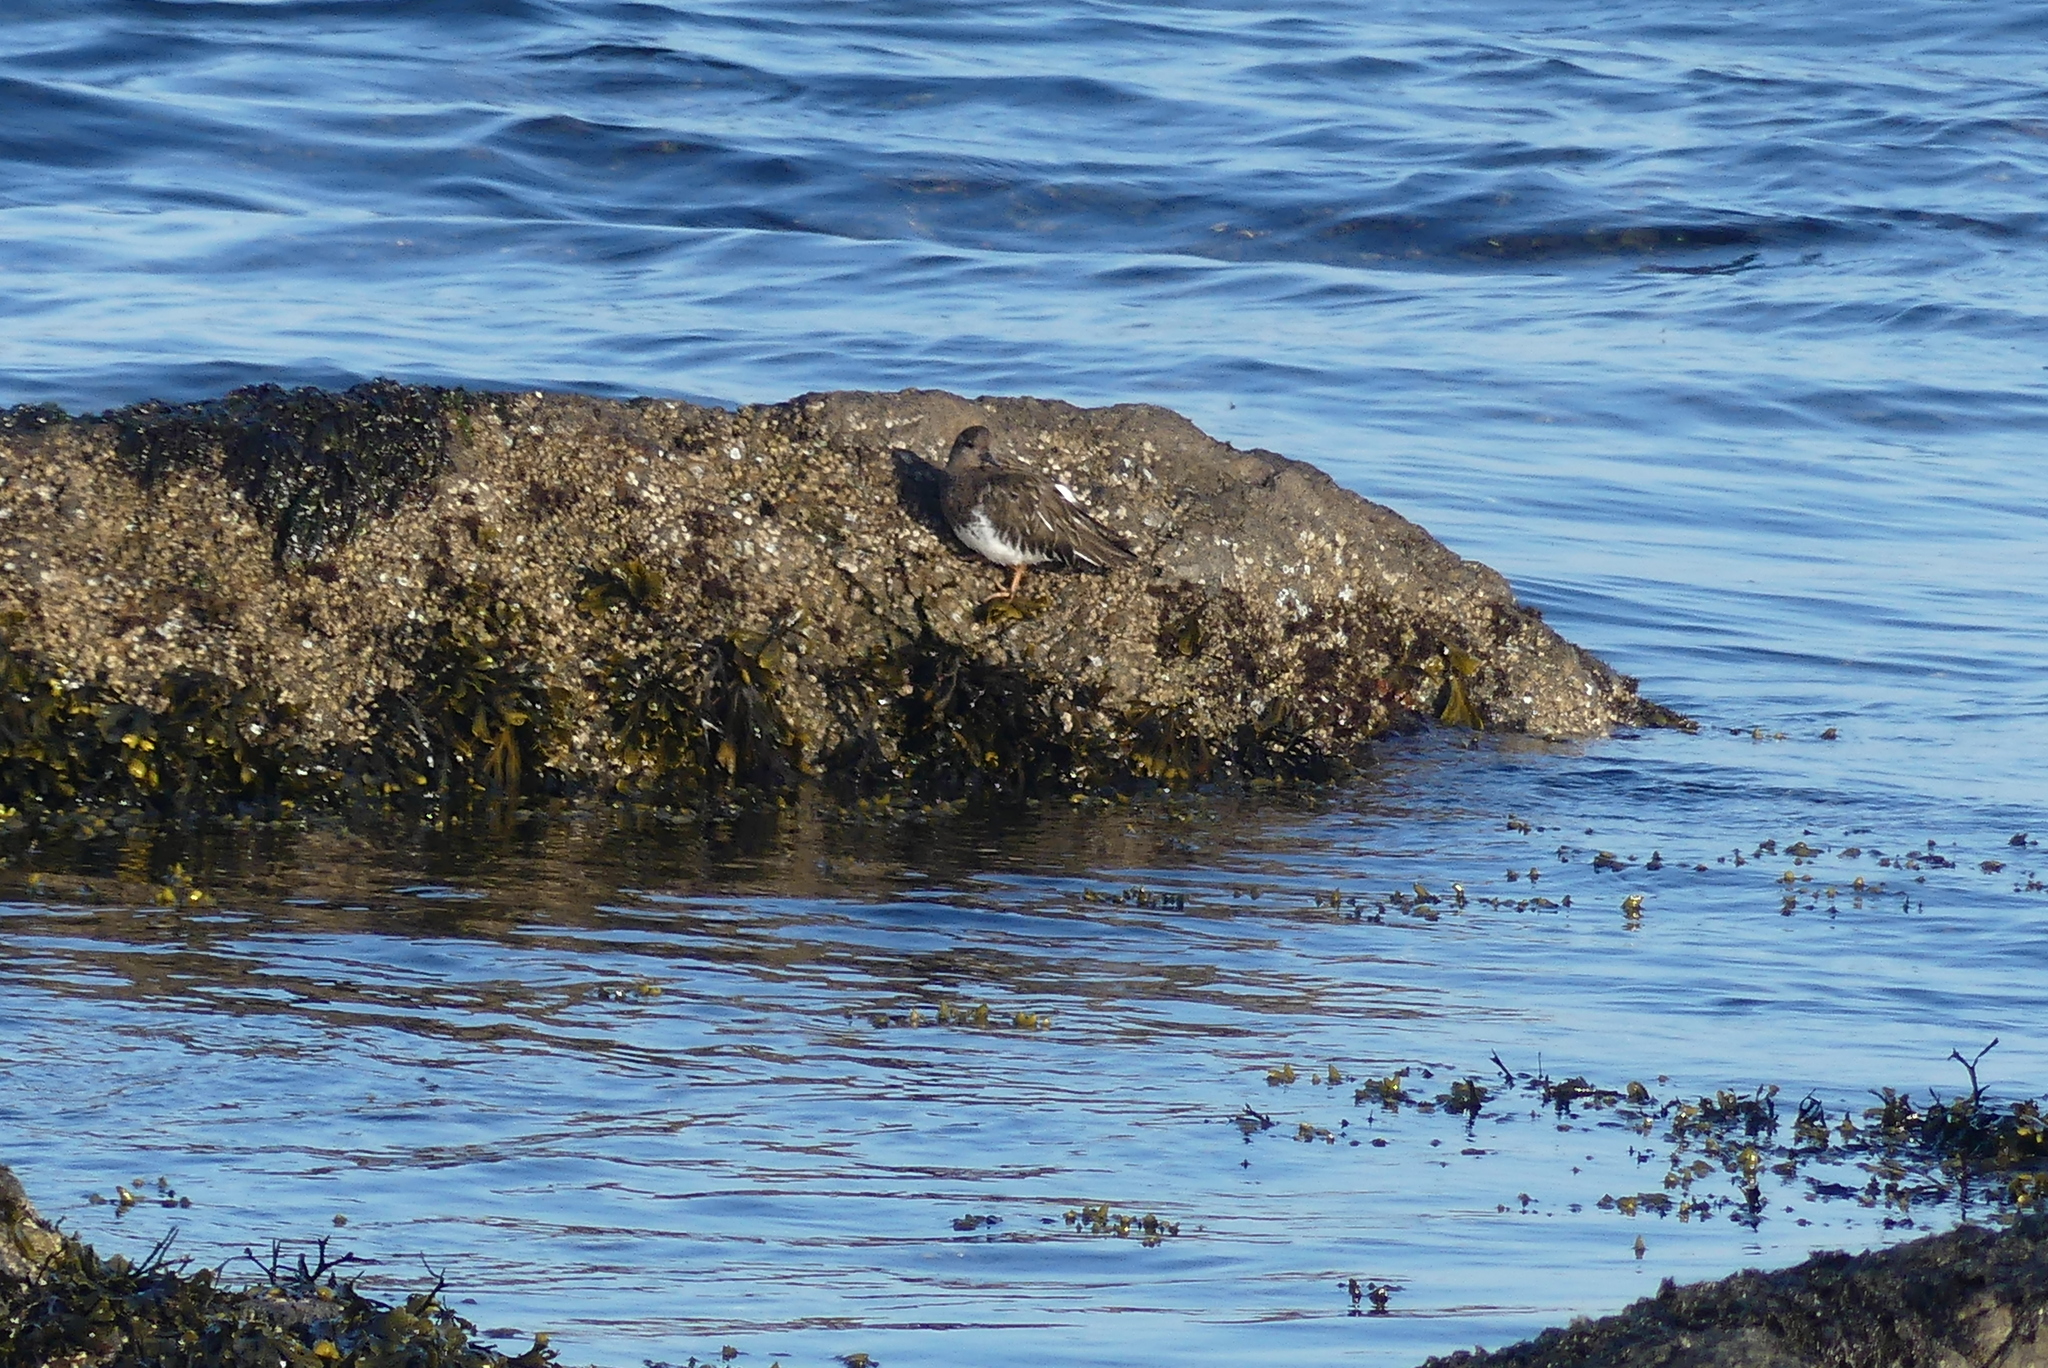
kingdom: Animalia
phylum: Chordata
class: Aves
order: Charadriiformes
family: Scolopacidae
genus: Arenaria
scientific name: Arenaria melanocephala
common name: Black turnstone
